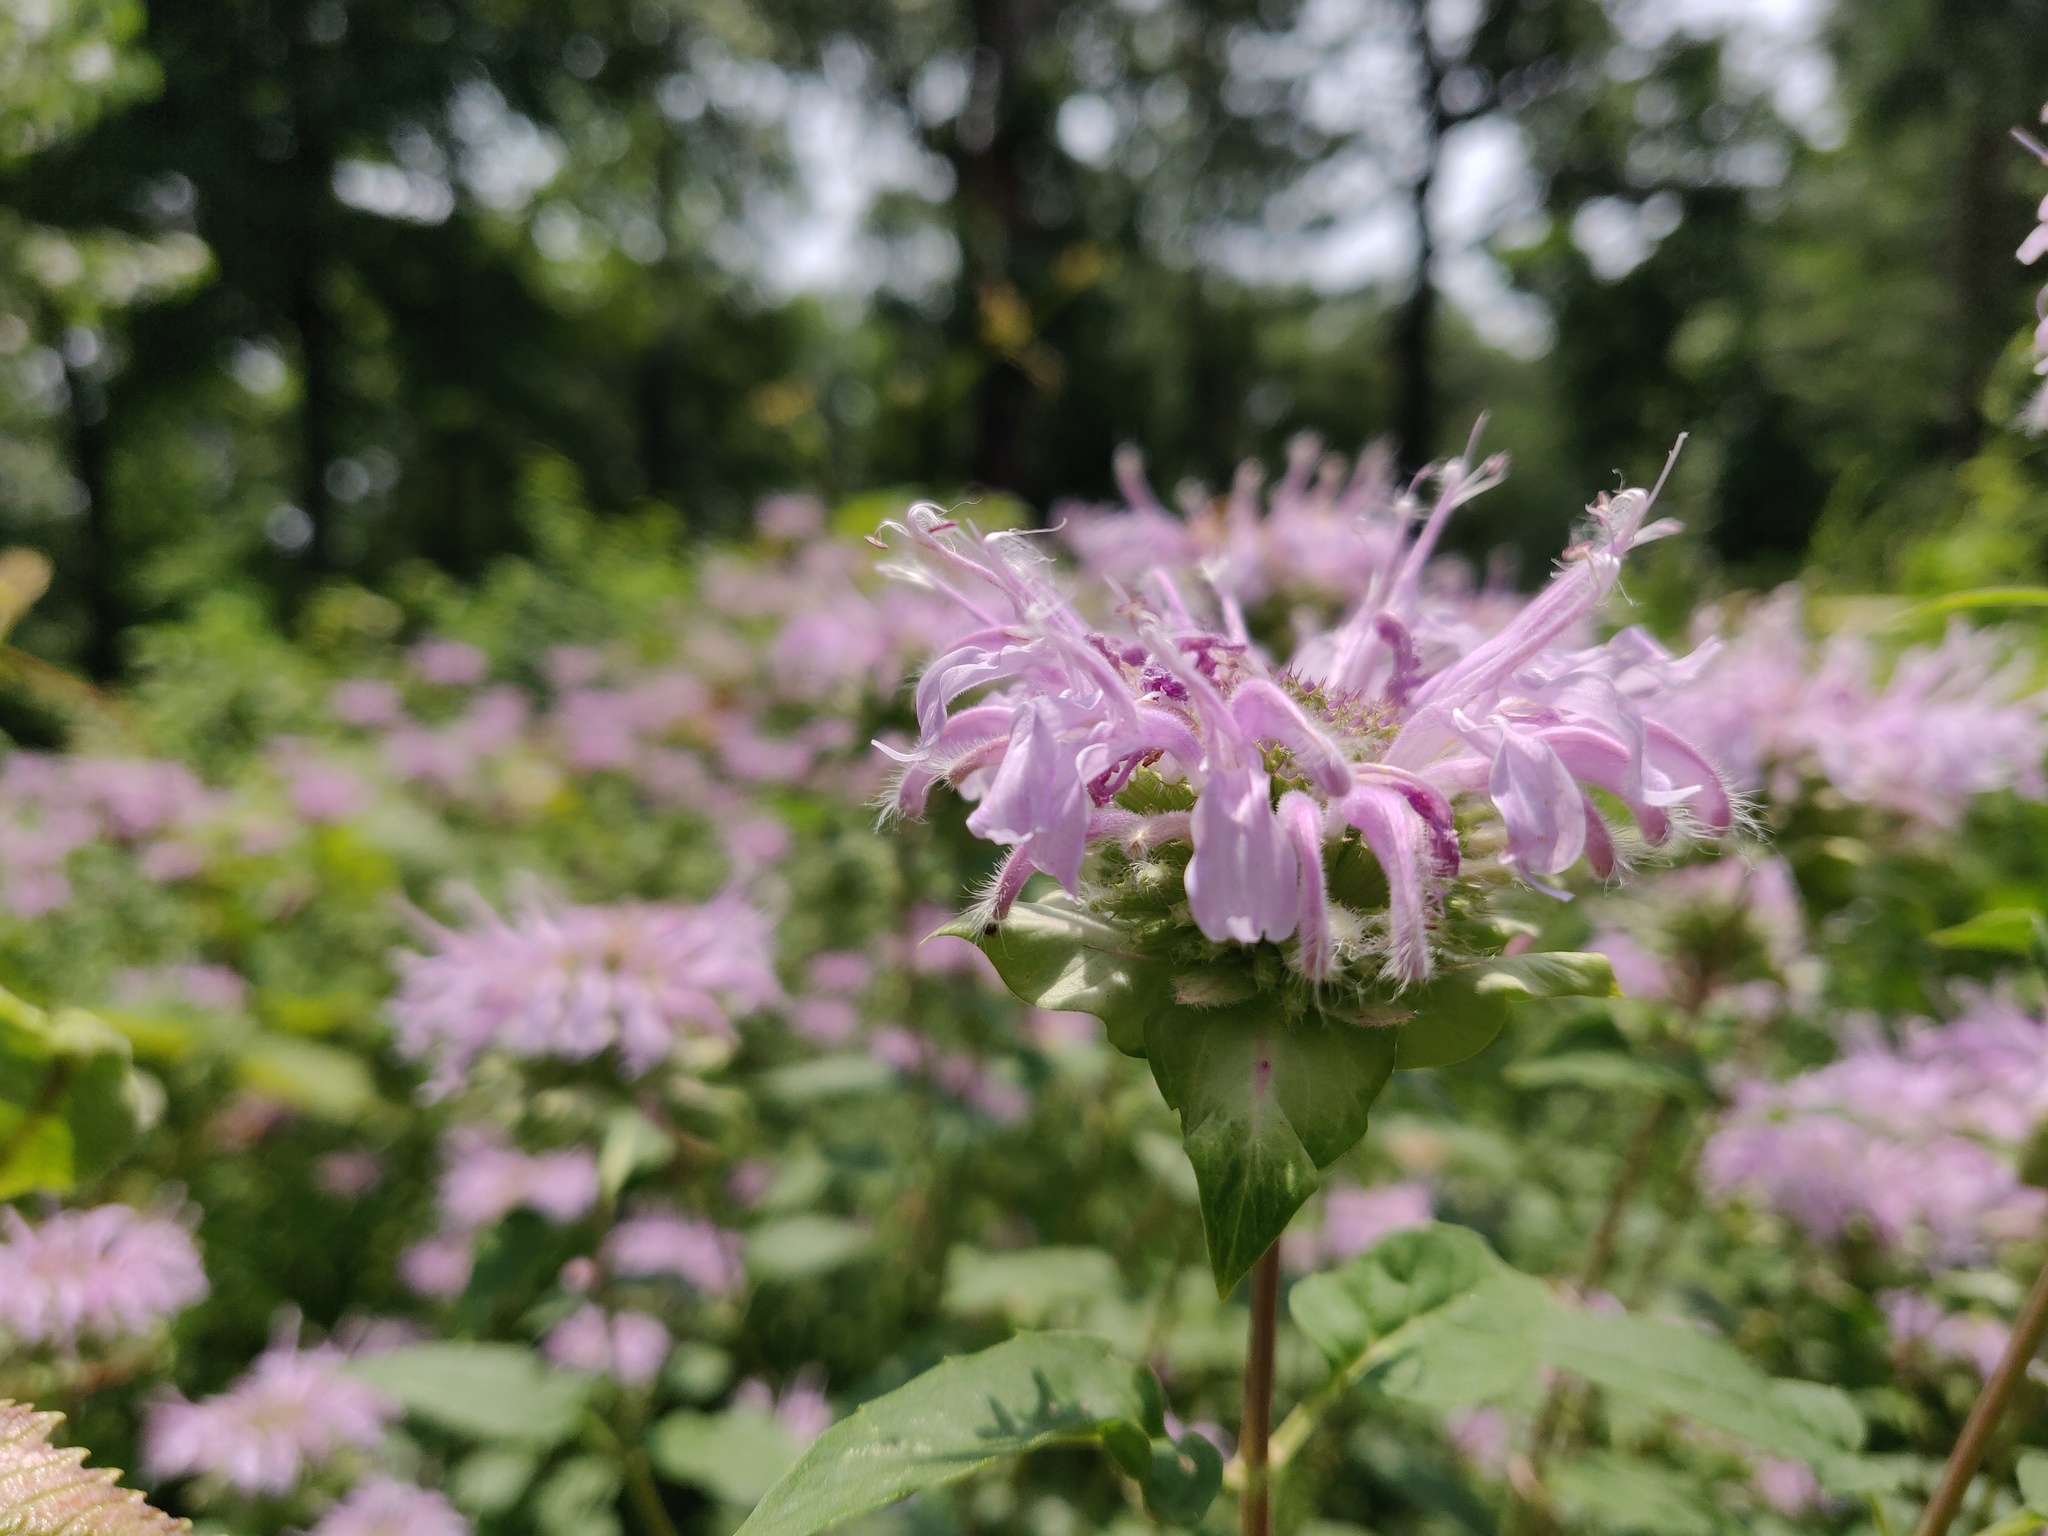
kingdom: Plantae
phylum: Tracheophyta
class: Magnoliopsida
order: Lamiales
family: Lamiaceae
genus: Monarda
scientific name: Monarda fistulosa
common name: Purple beebalm
